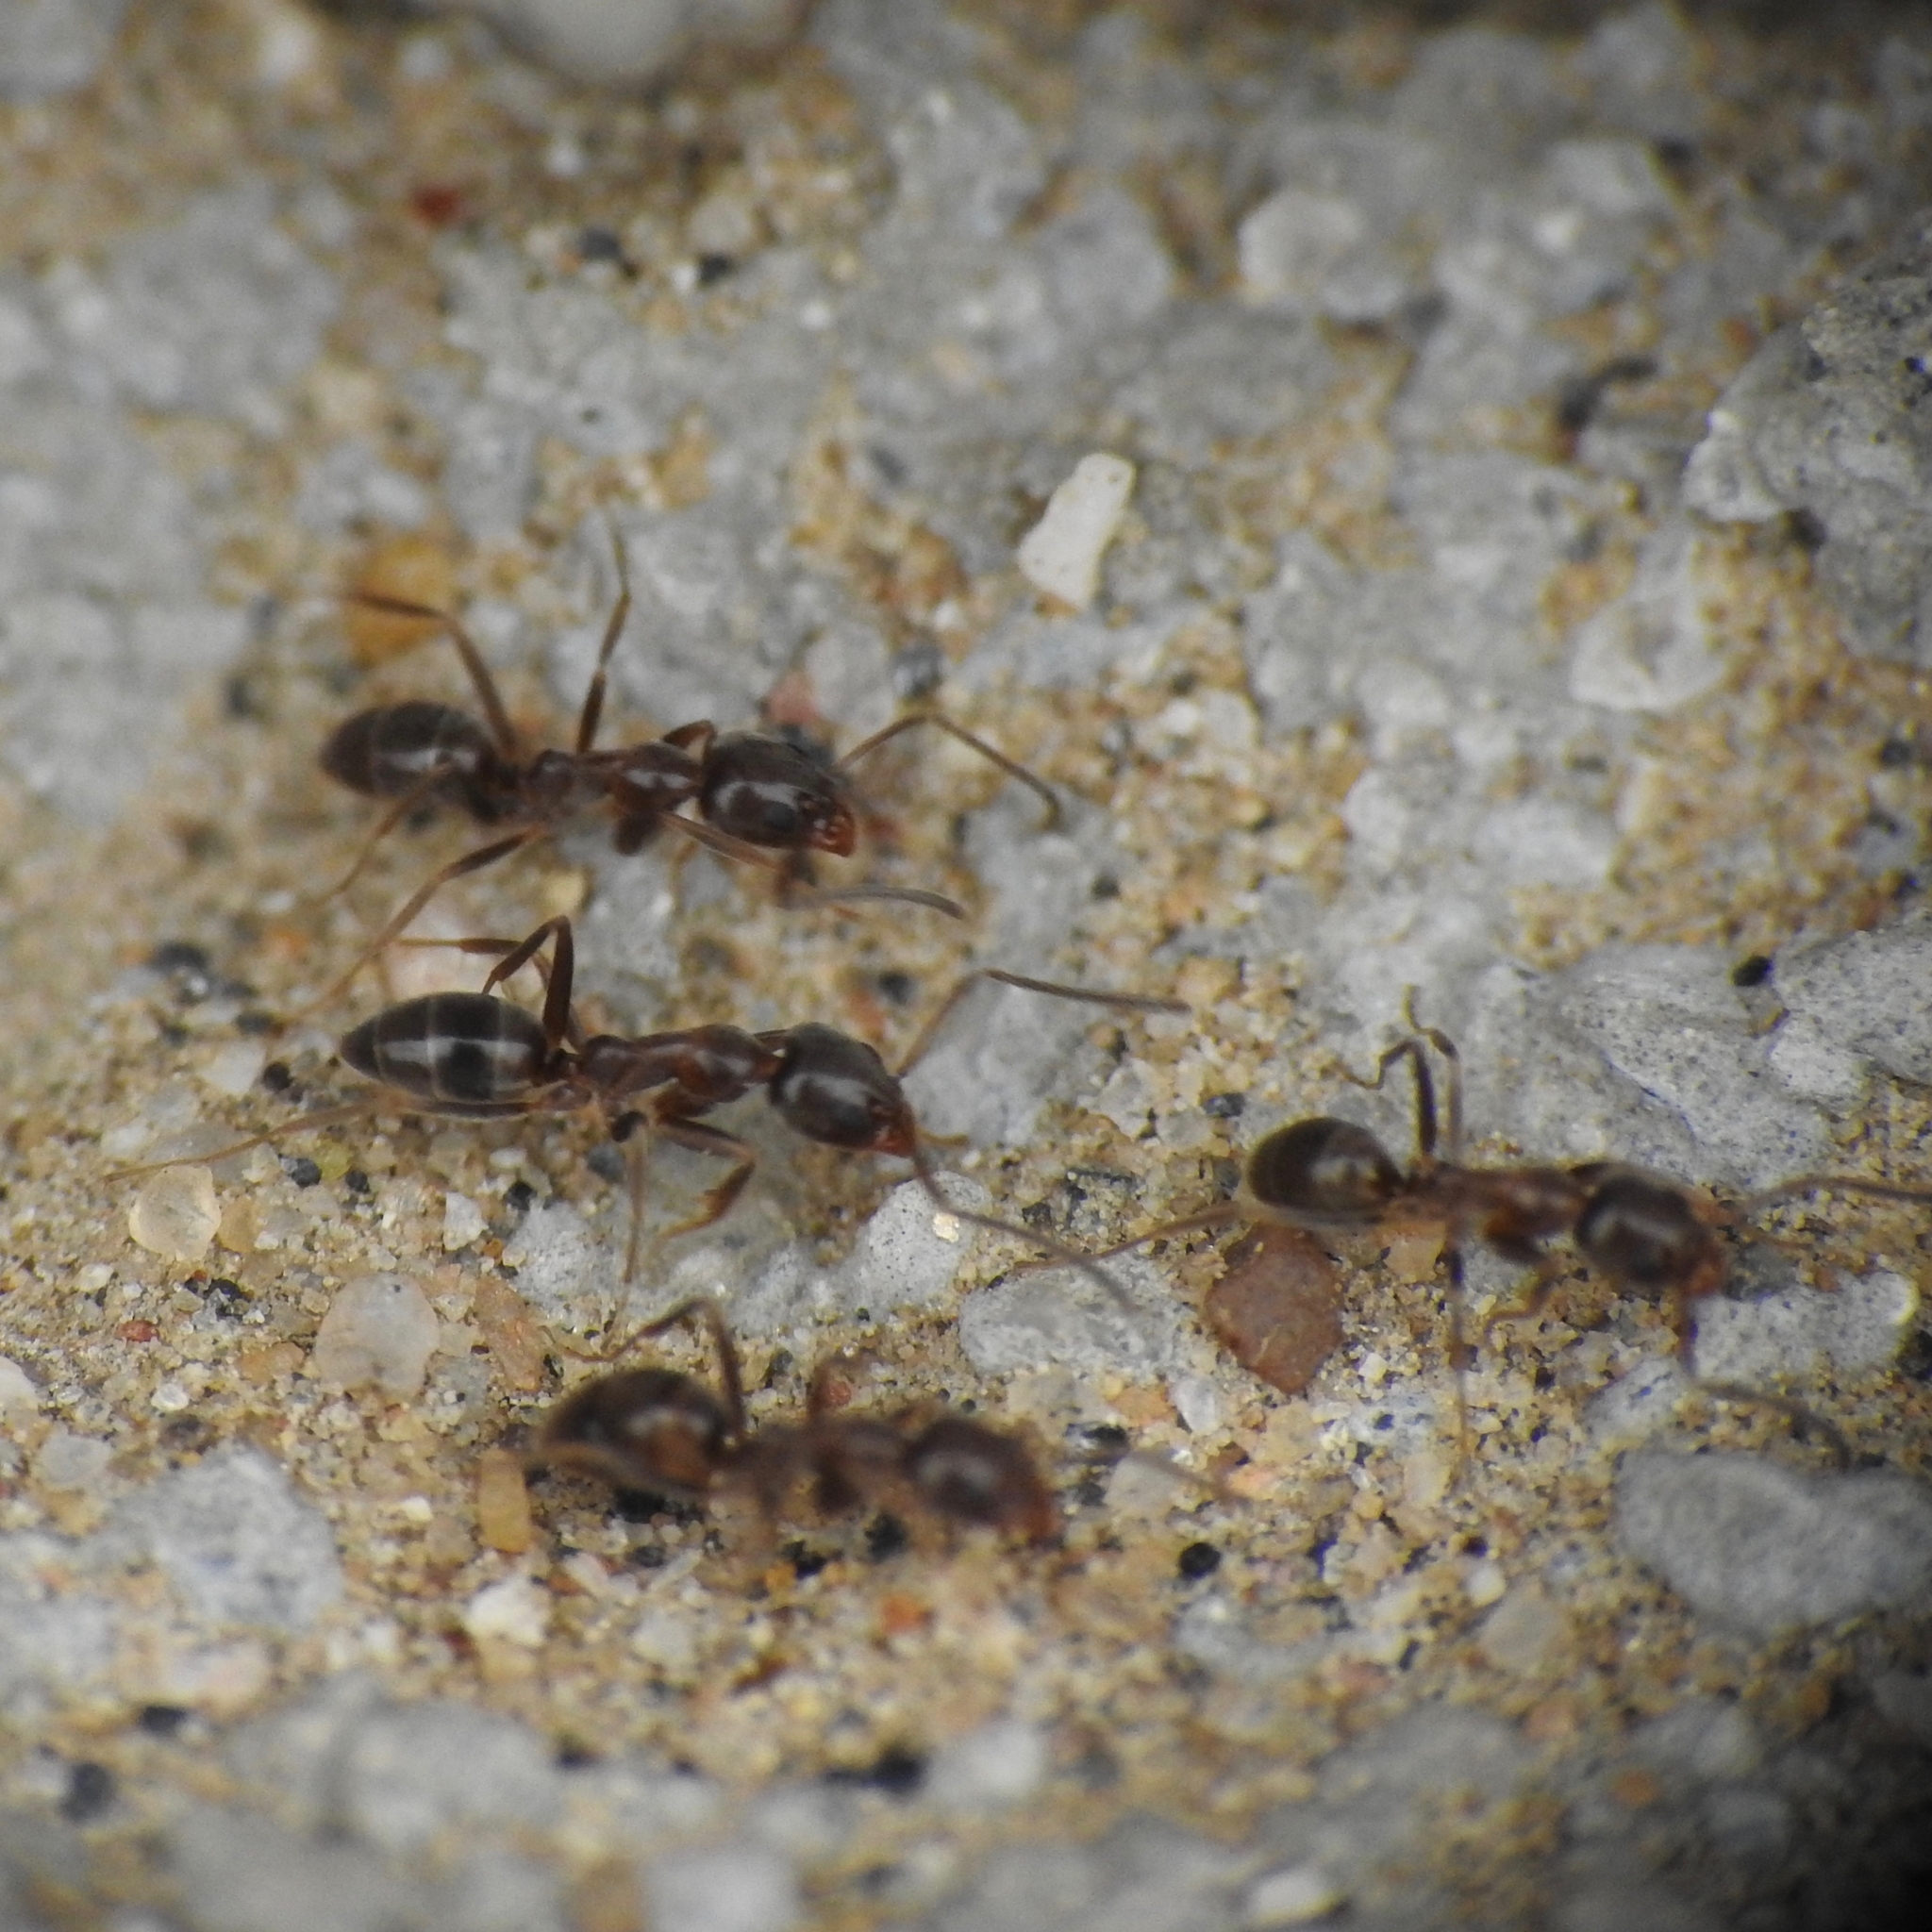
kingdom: Animalia
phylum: Arthropoda
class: Insecta
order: Hymenoptera
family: Formicidae
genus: Linepithema
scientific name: Linepithema humile
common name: Argentine ant
